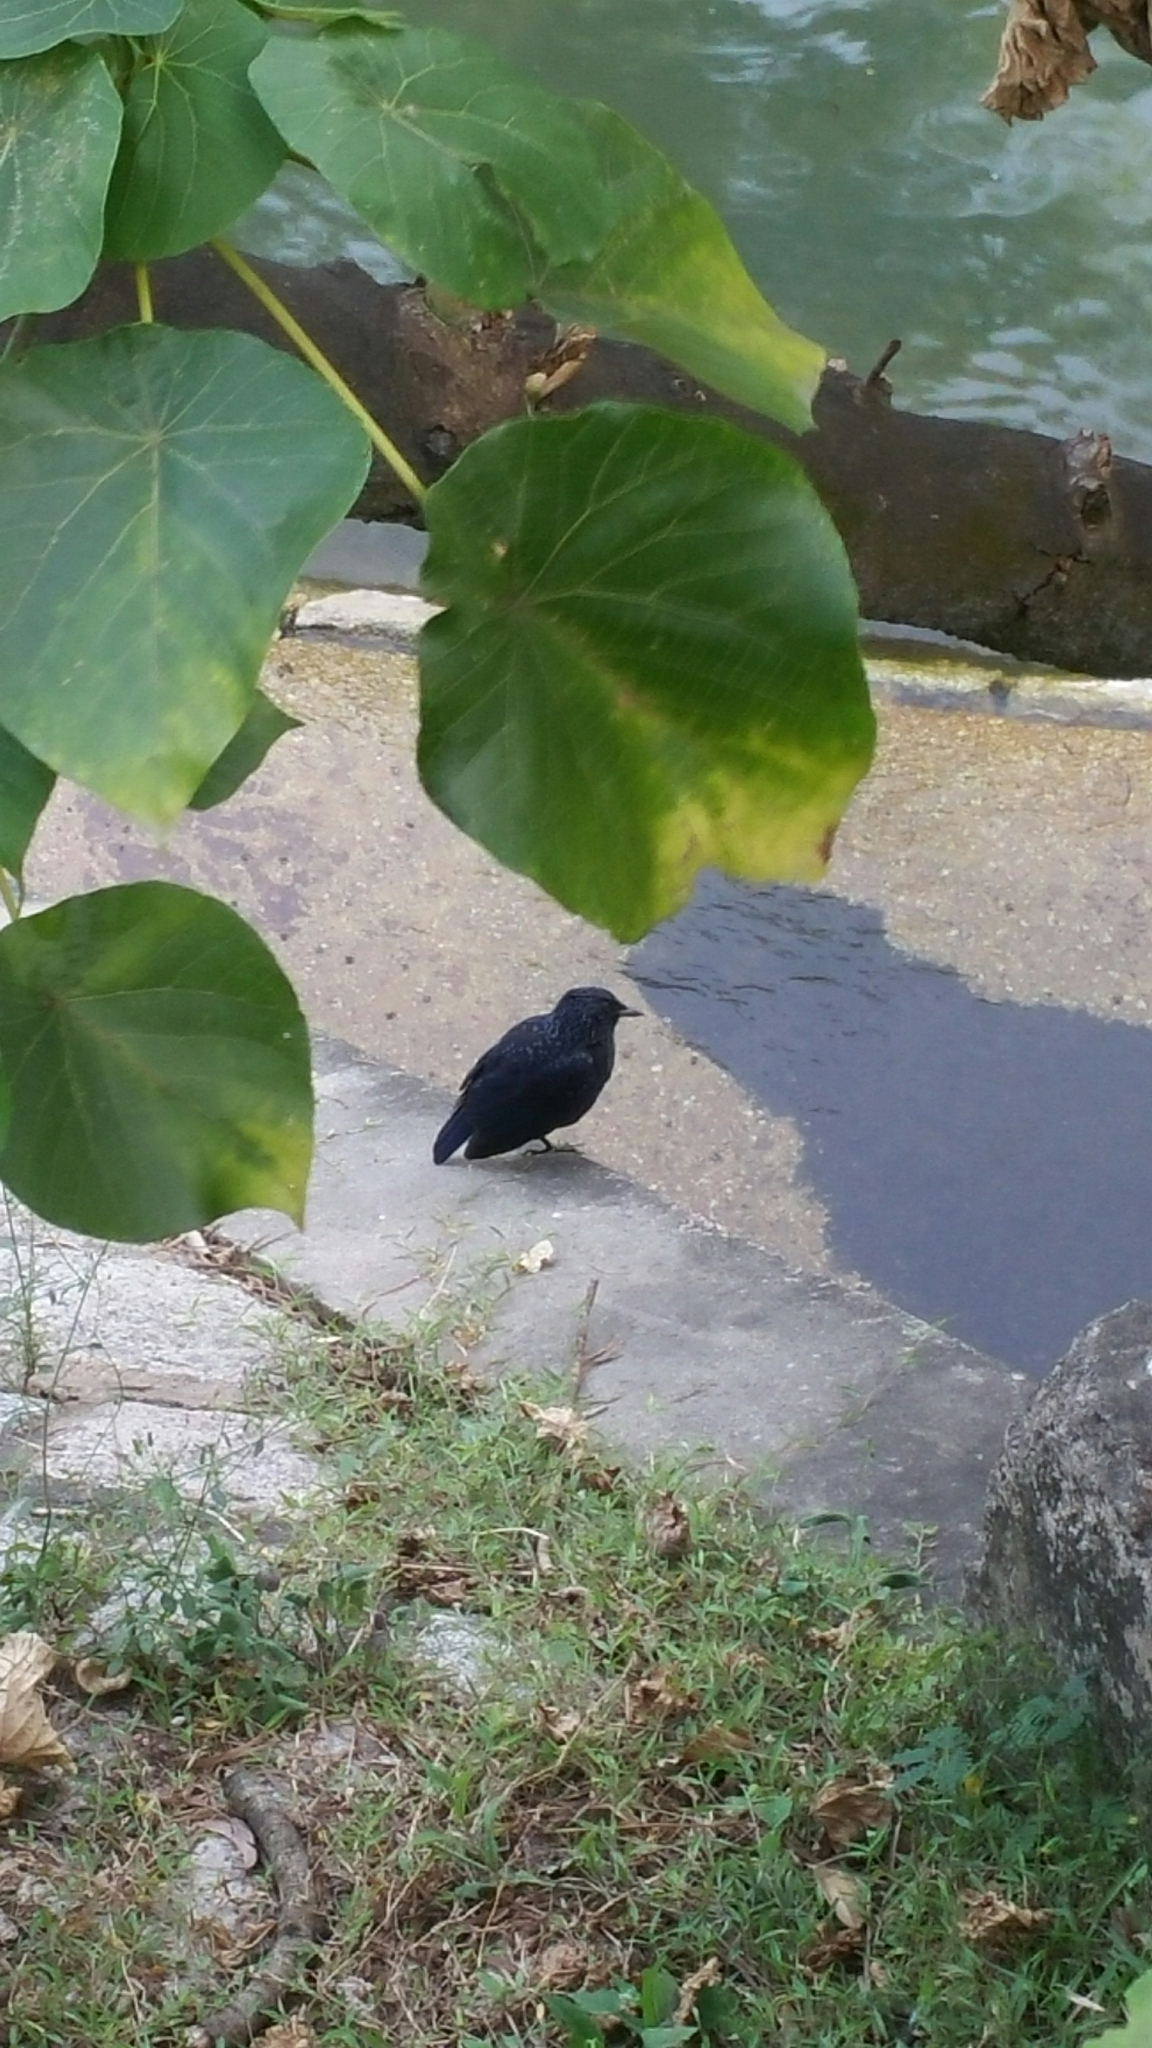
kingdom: Animalia
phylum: Chordata
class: Aves
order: Passeriformes
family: Muscicapidae
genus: Myophonus
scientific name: Myophonus caeruleus
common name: Blue whistling-thrush
